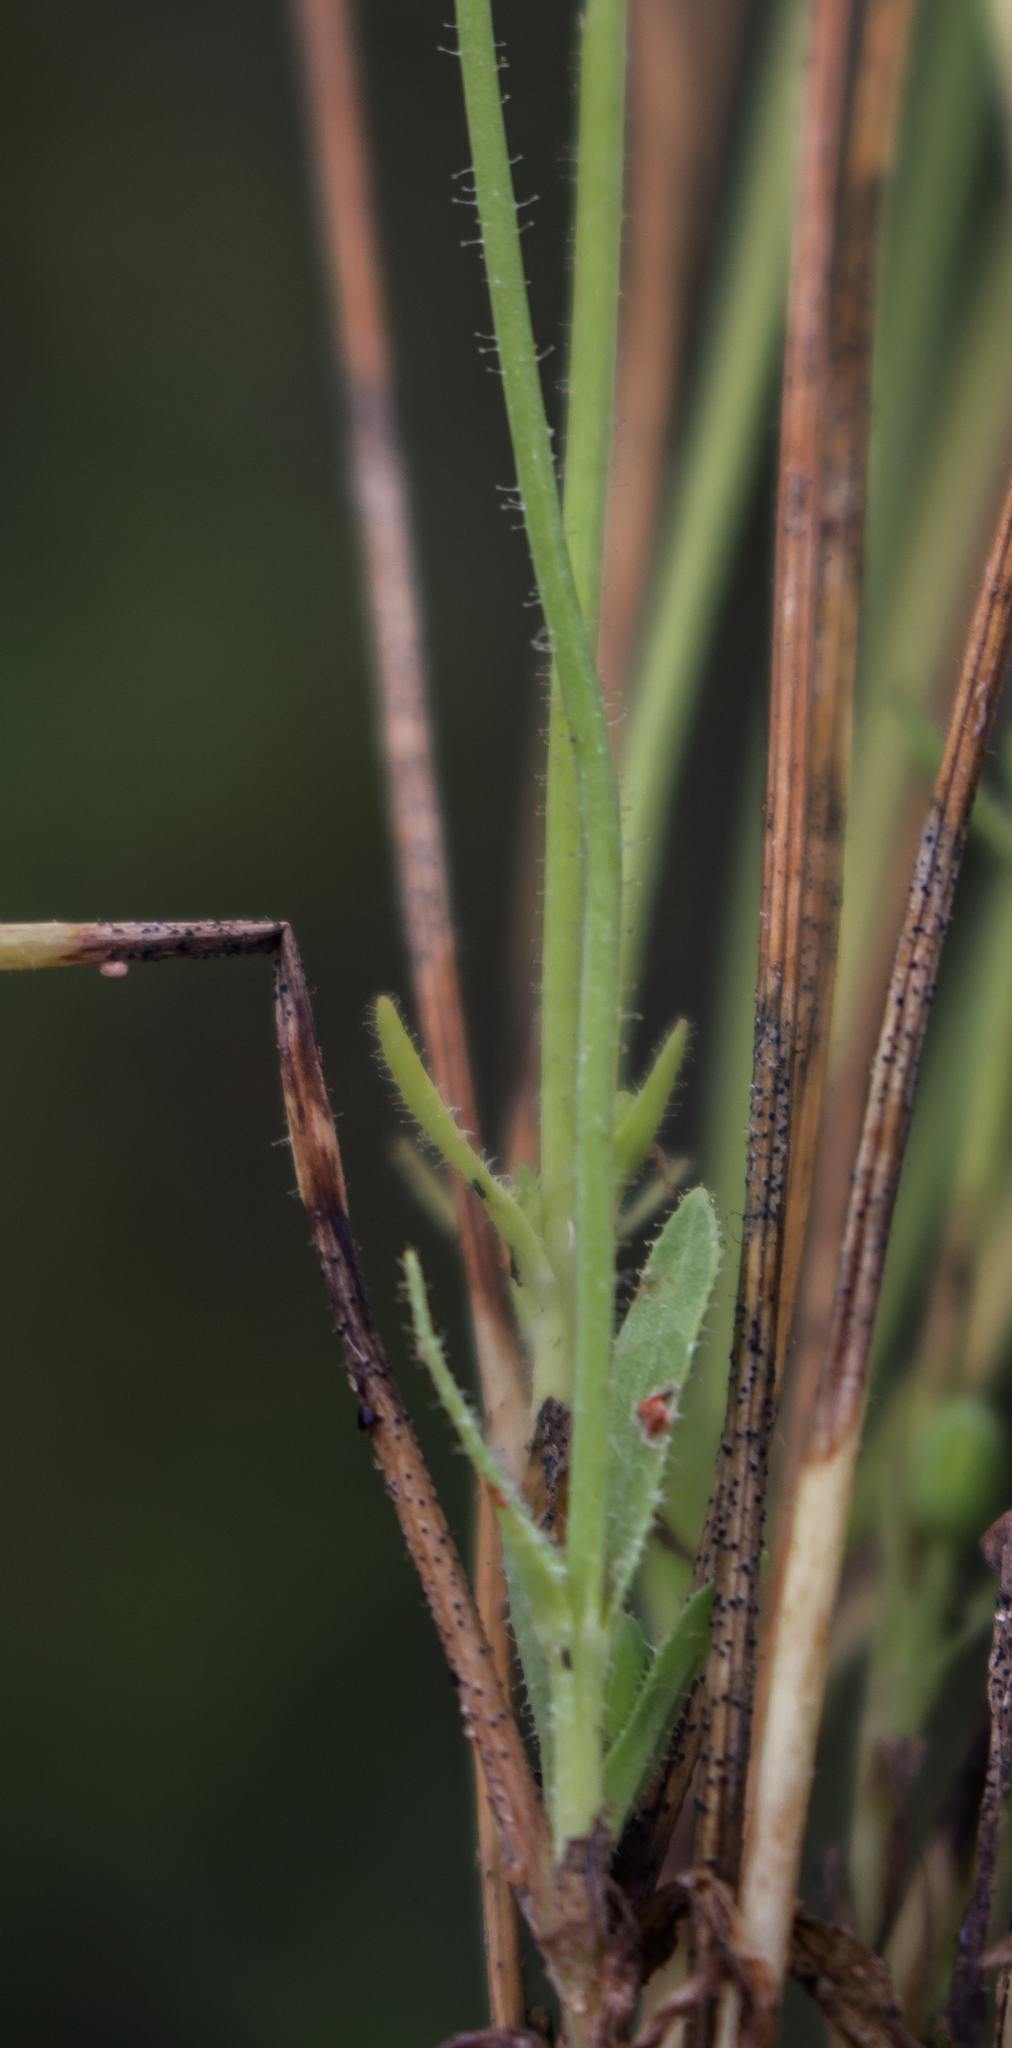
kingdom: Plantae
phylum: Tracheophyta
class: Magnoliopsida
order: Asterales
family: Asteraceae
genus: Krigia
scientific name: Krigia virginica
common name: Virginia dwarf-dandelion
